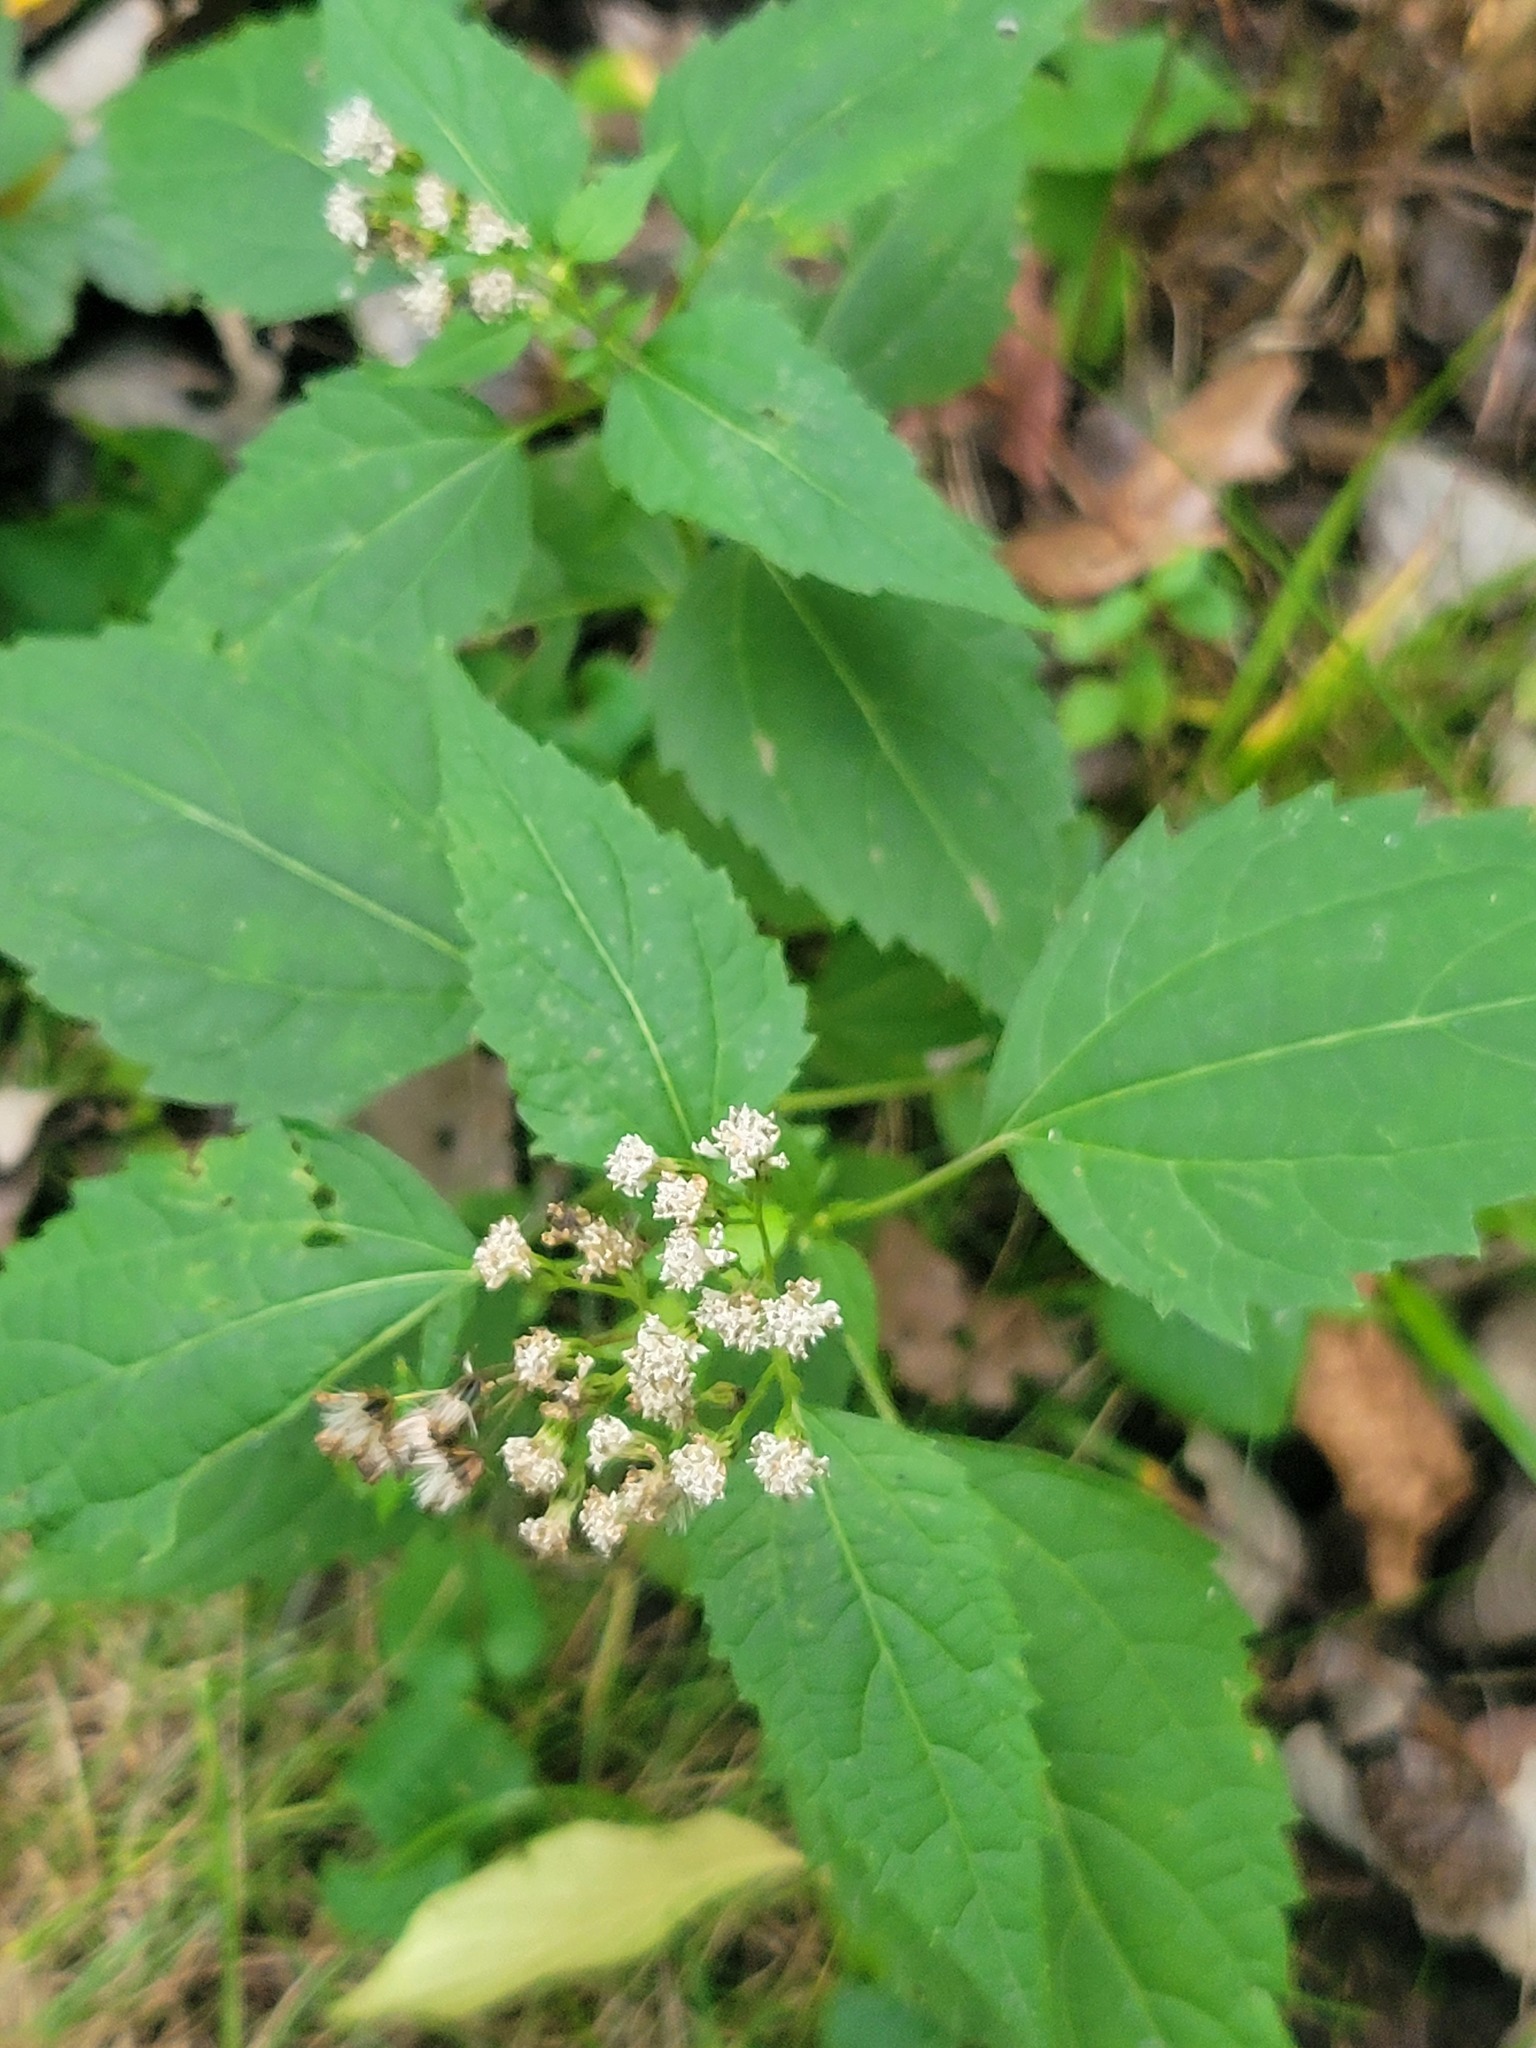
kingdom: Plantae
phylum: Tracheophyta
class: Magnoliopsida
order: Asterales
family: Asteraceae
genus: Ageratina
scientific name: Ageratina altissima
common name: White snakeroot
